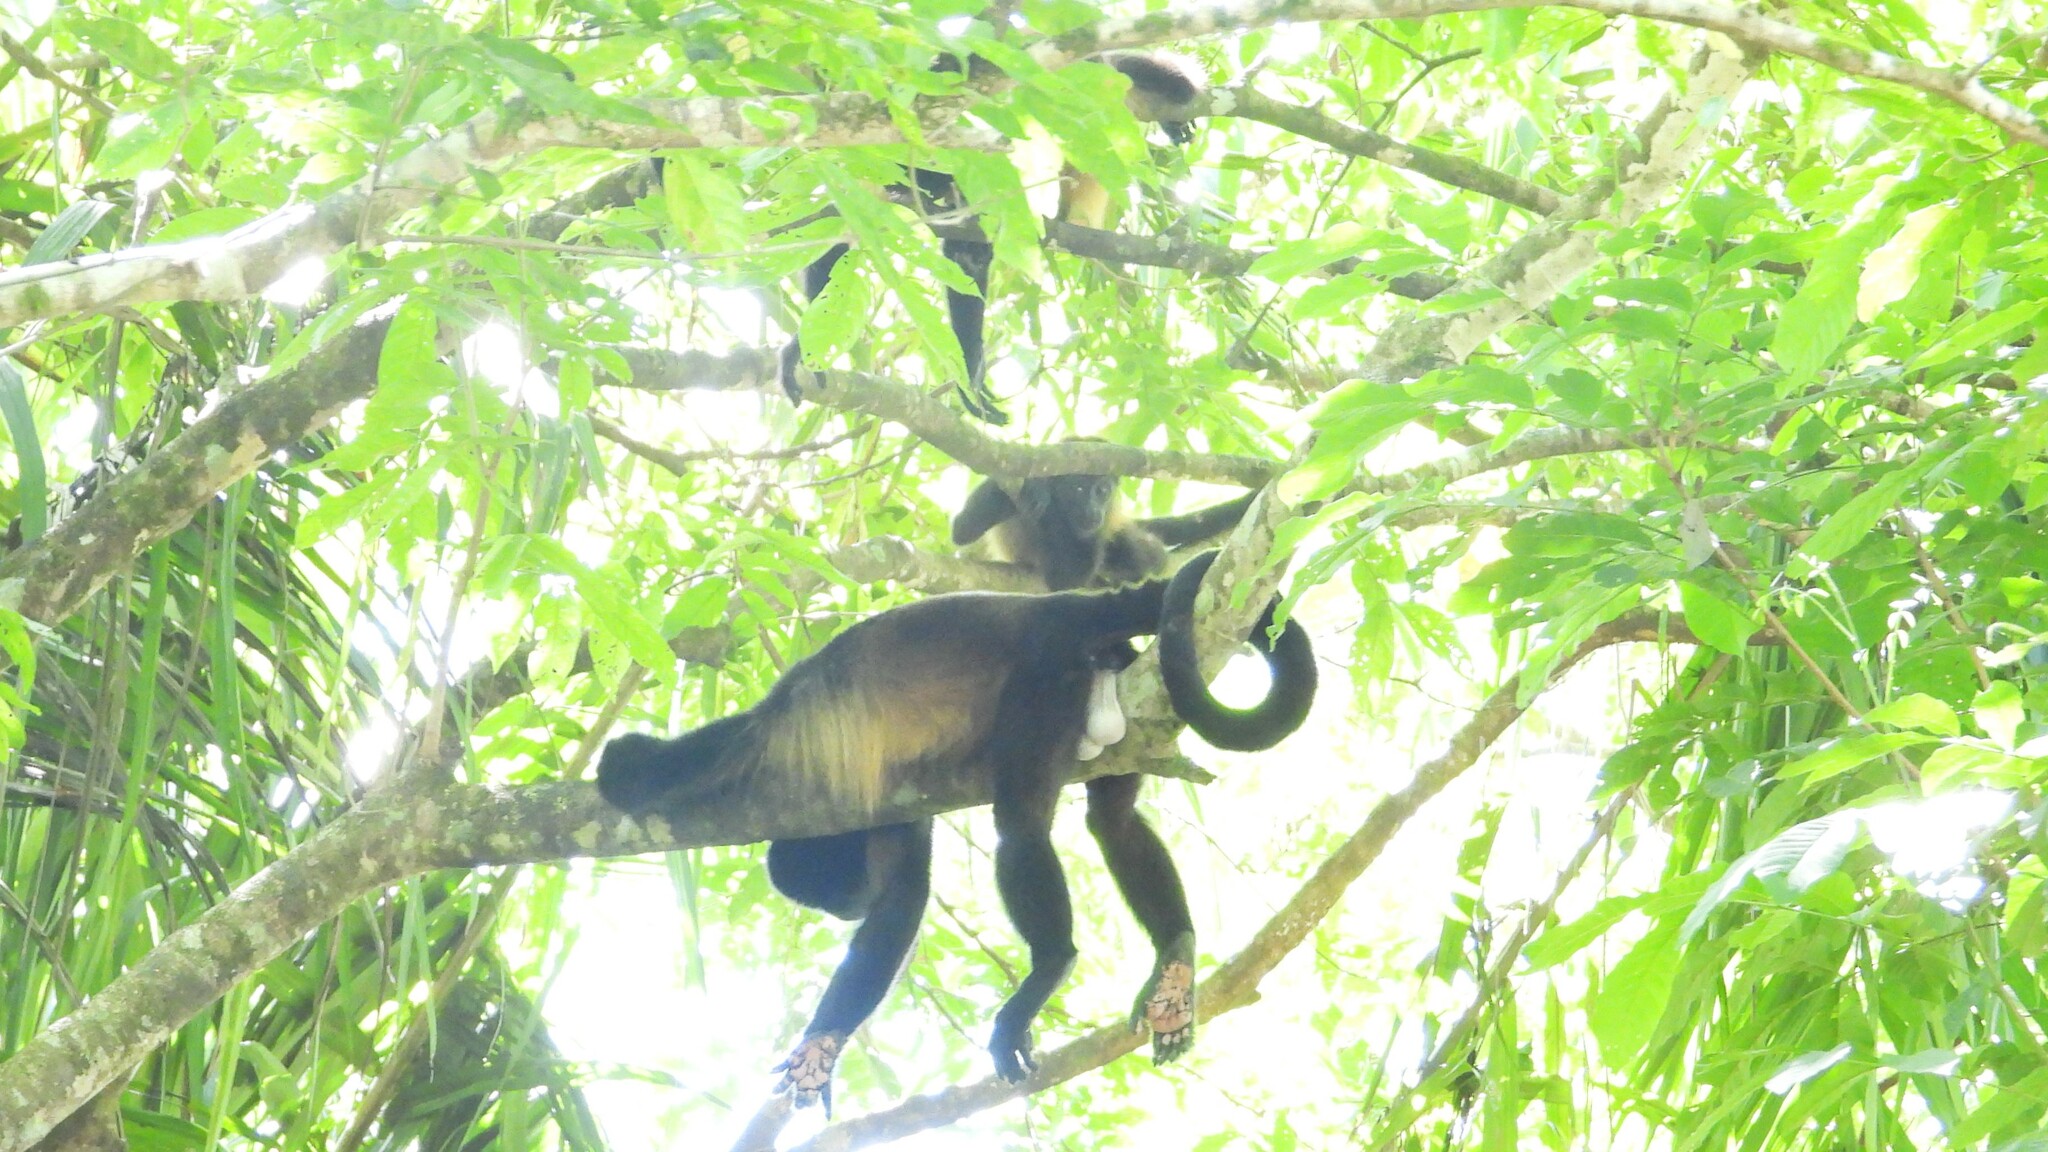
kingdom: Animalia
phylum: Chordata
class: Mammalia
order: Primates
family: Atelidae
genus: Alouatta
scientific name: Alouatta palliata
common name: Mantled howler
